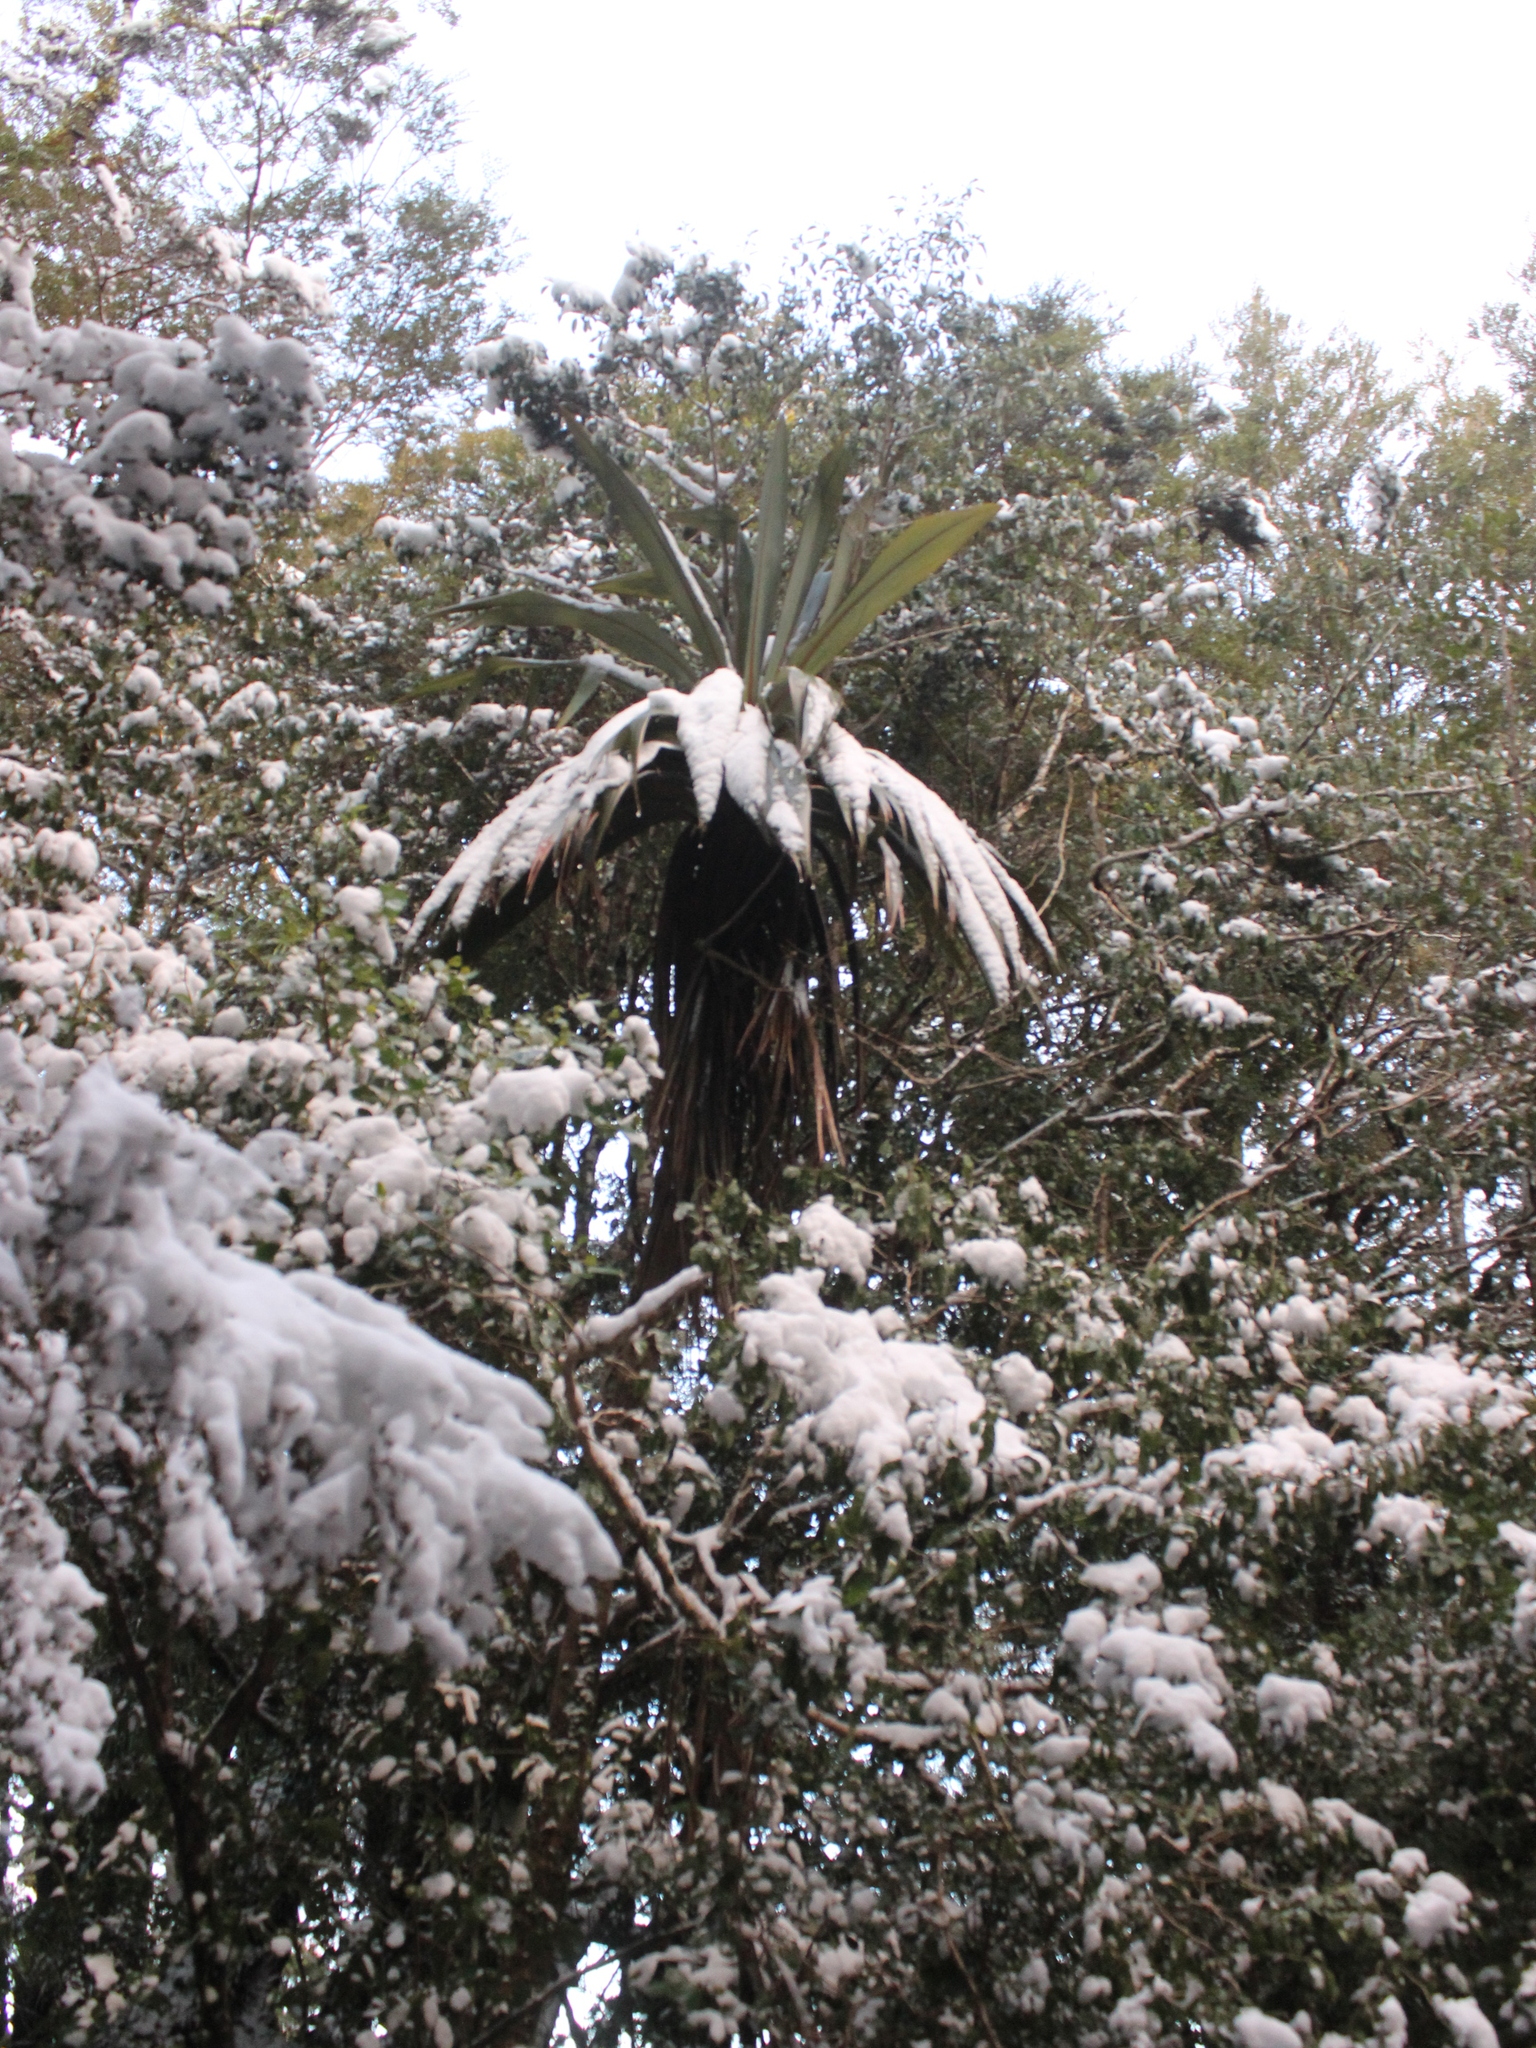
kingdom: Plantae
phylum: Tracheophyta
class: Liliopsida
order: Asparagales
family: Asparagaceae
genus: Cordyline
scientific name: Cordyline indivisa
